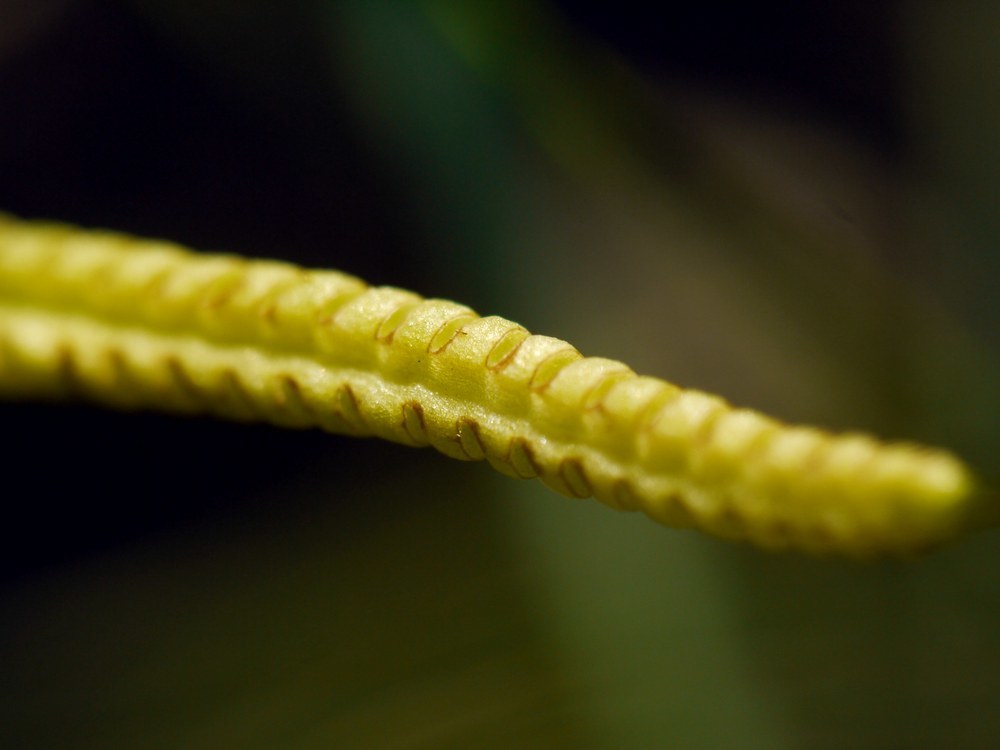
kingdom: Plantae
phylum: Tracheophyta
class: Polypodiopsida
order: Ophioglossales
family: Ophioglossaceae
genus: Ophioglossum
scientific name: Ophioglossum vulgatum
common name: Adder's-tongue
